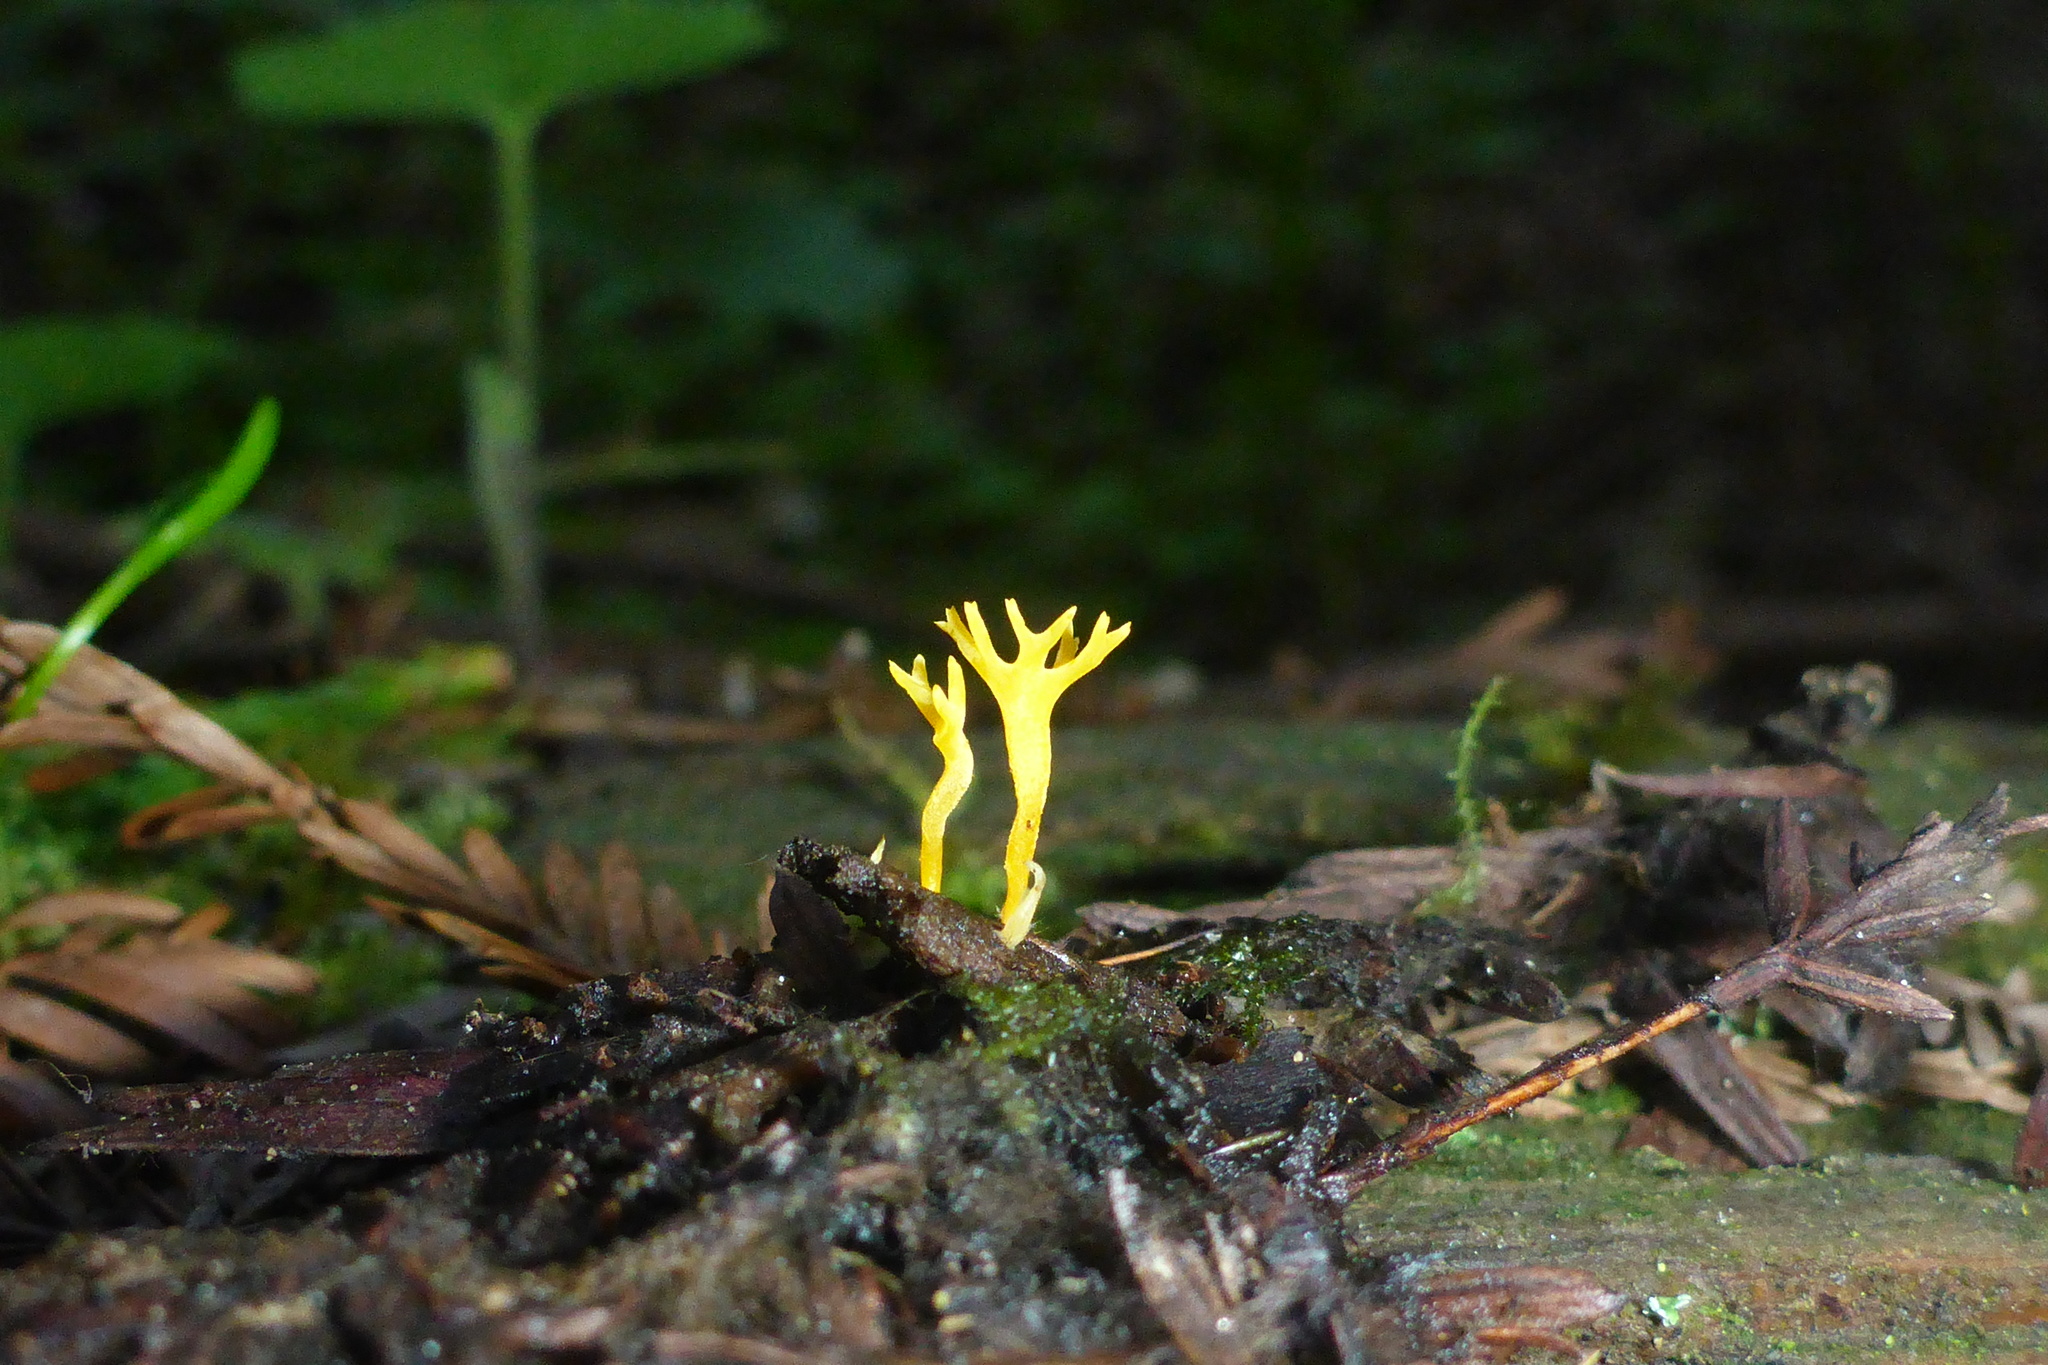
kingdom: Fungi
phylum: Basidiomycota
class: Dacrymycetes
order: Dacrymycetales
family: Dacrymycetaceae
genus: Calocera
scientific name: Calocera viscosa
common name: Yellow stagshorn
